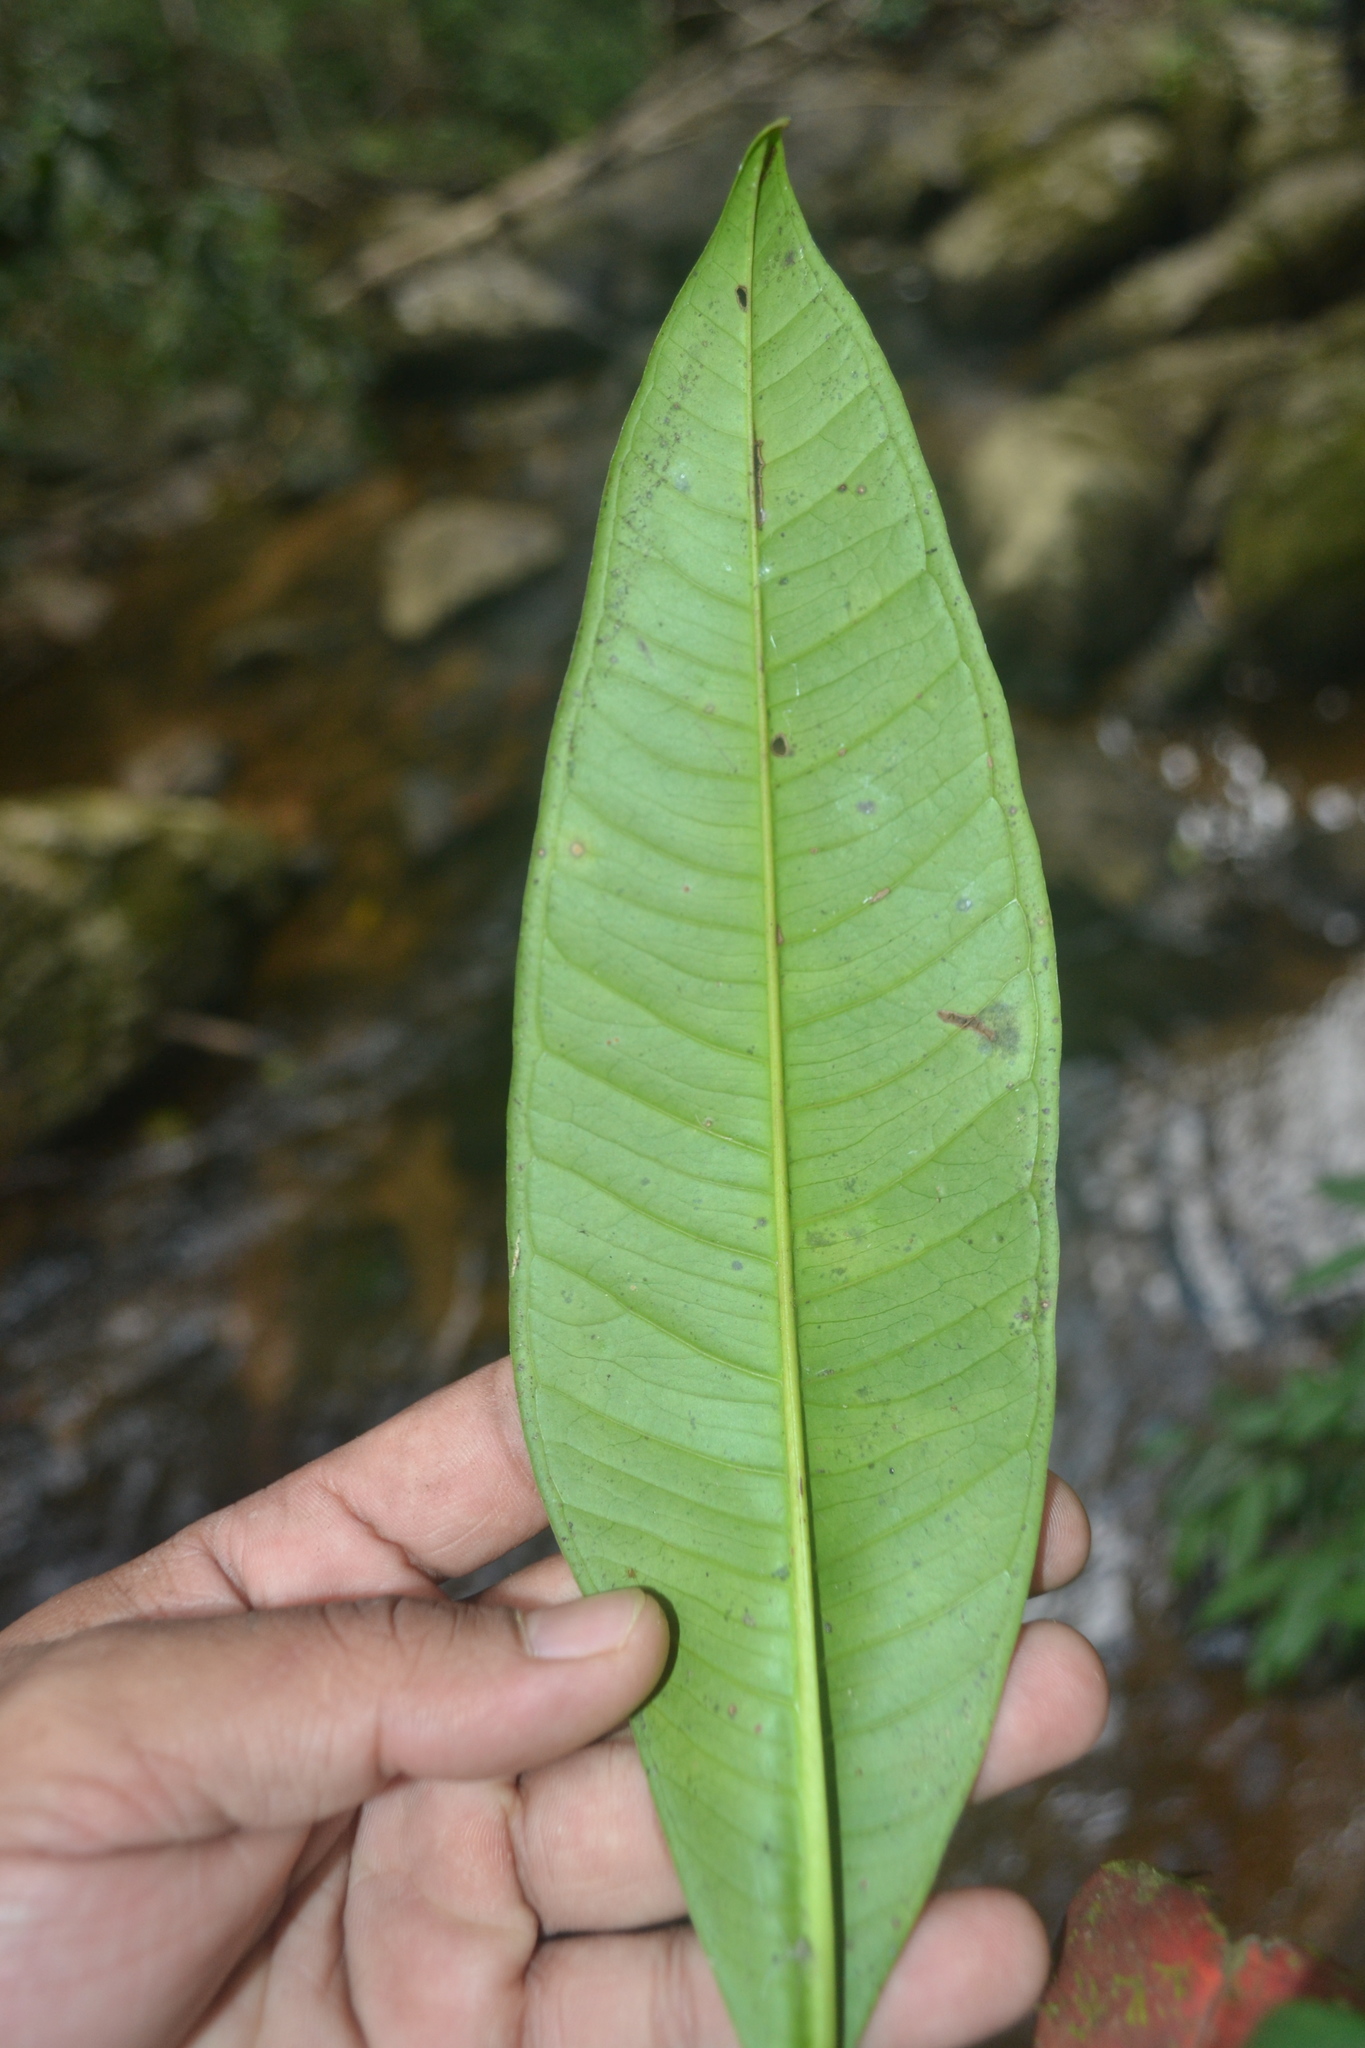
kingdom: Plantae
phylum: Tracheophyta
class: Magnoliopsida
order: Myrtales
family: Myrtaceae
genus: Syzygium
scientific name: Syzygium
